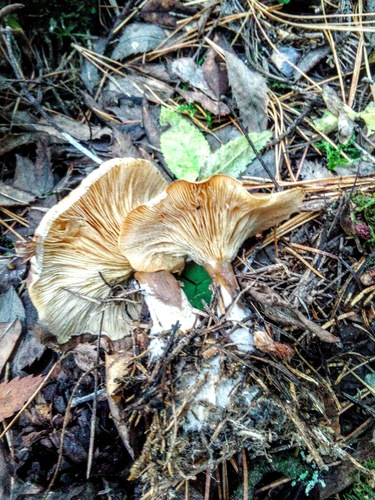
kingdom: Fungi
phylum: Basidiomycota
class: Agaricomycetes
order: Agaricales
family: Tricholomataceae
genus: Clitocybe
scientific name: Clitocybe nebularis
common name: Clouded agaric
